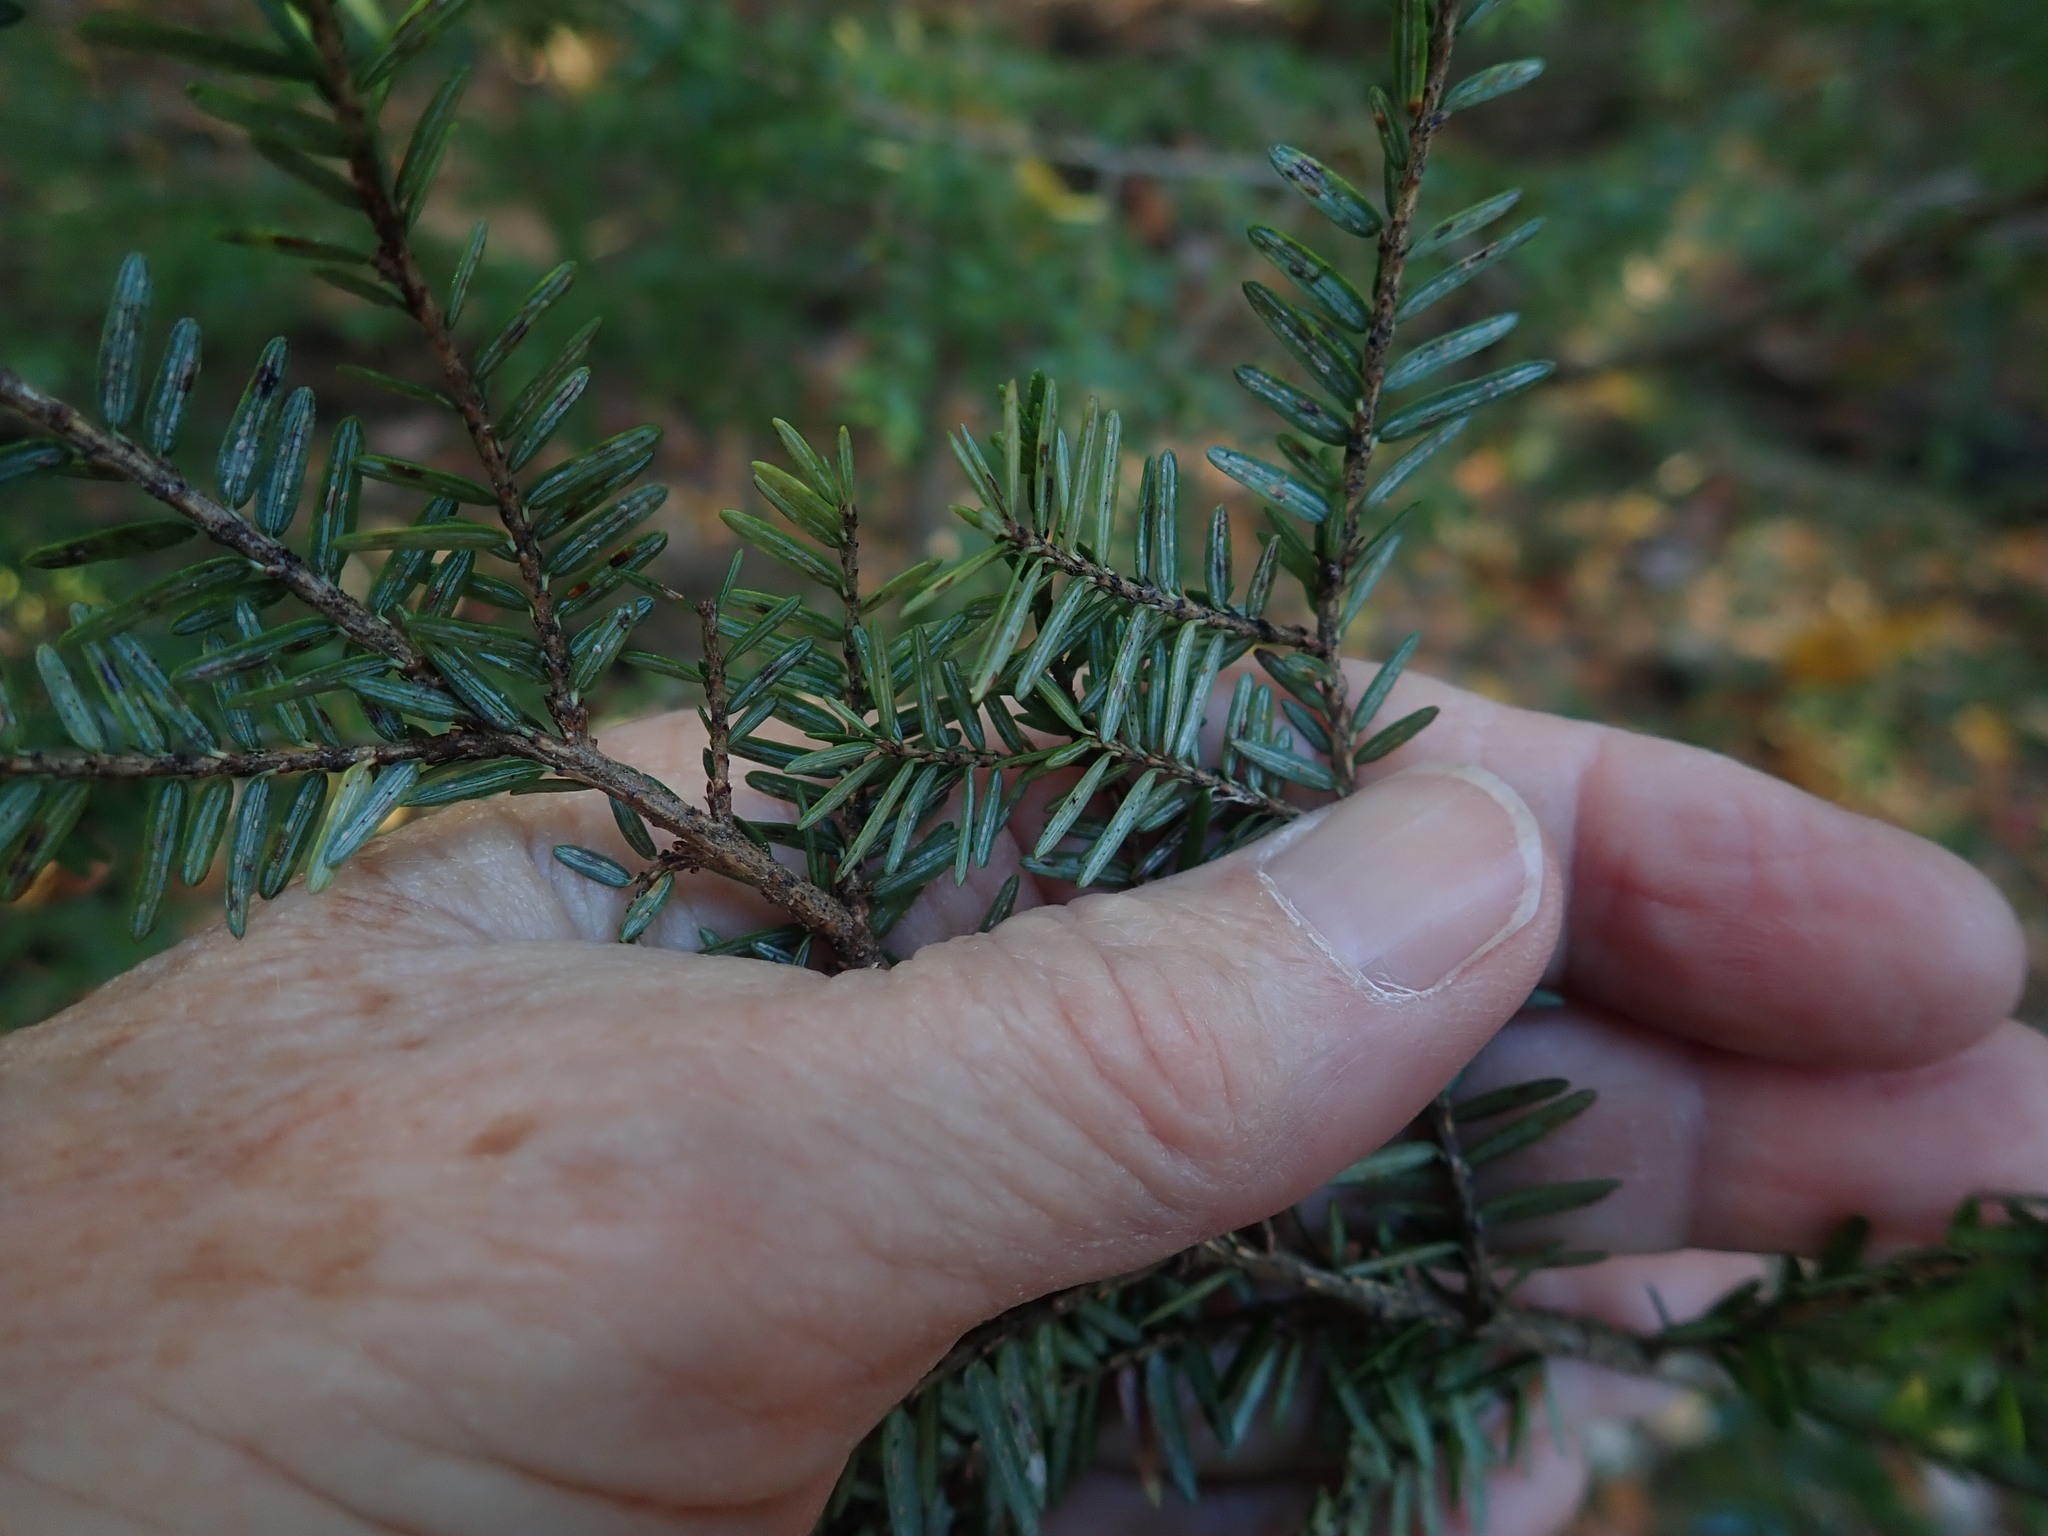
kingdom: Plantae
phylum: Tracheophyta
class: Pinopsida
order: Pinales
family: Pinaceae
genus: Tsuga
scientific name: Tsuga canadensis
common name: Eastern hemlock
